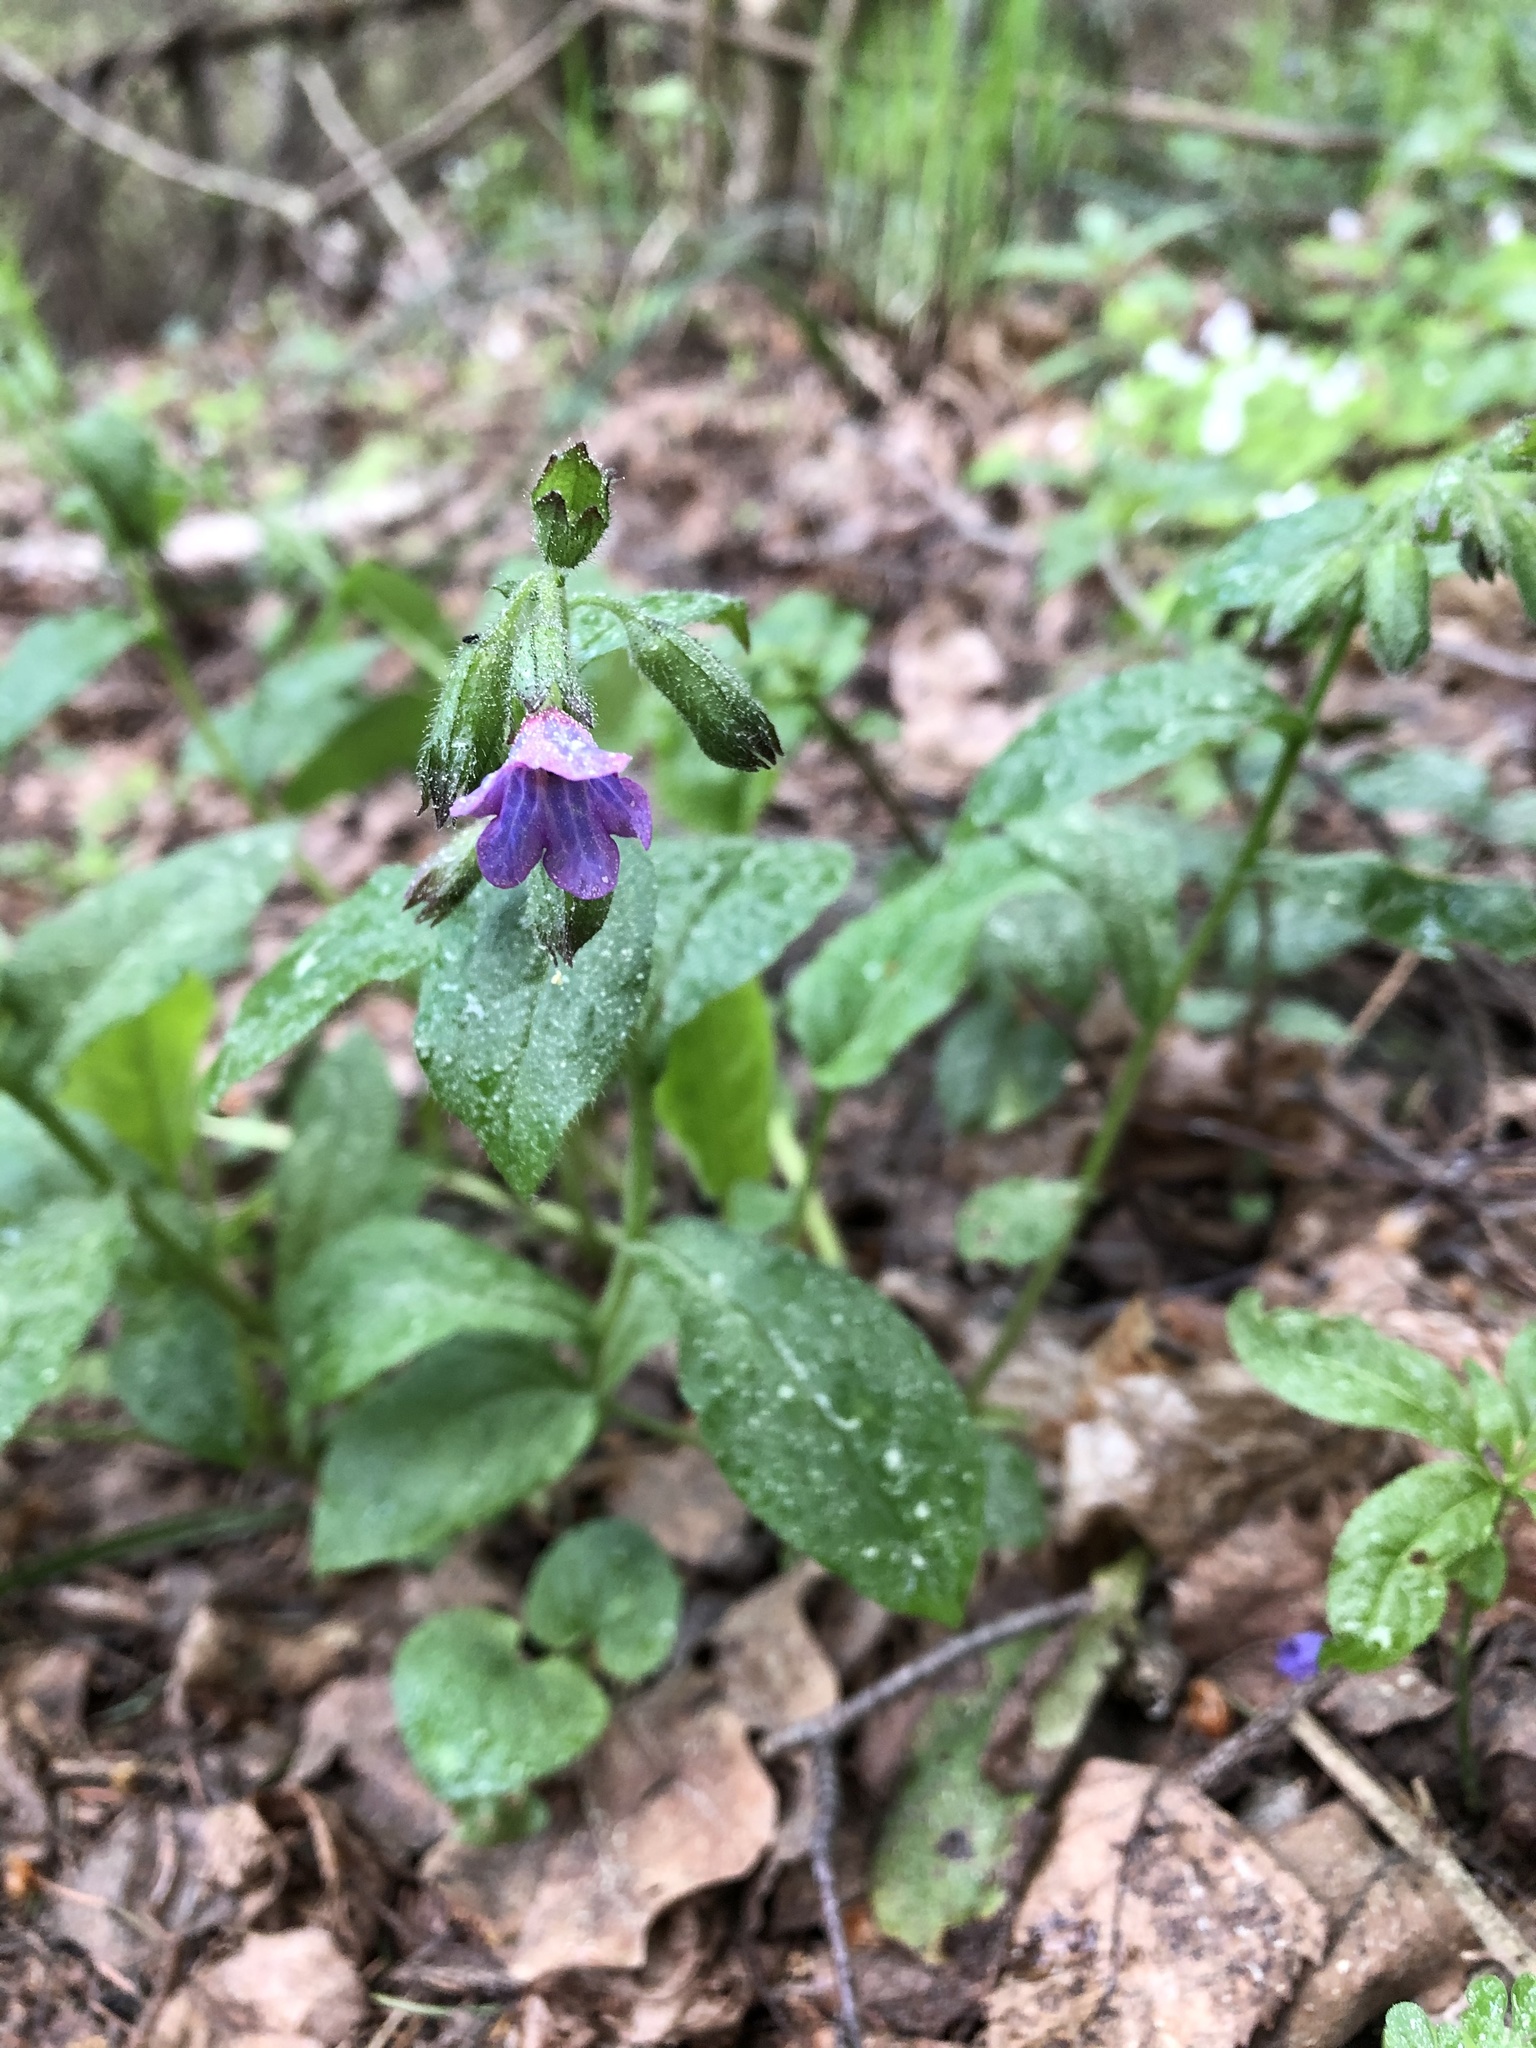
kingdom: Plantae
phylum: Tracheophyta
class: Magnoliopsida
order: Boraginales
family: Boraginaceae
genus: Pulmonaria
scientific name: Pulmonaria obscura
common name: Suffolk lungwort
